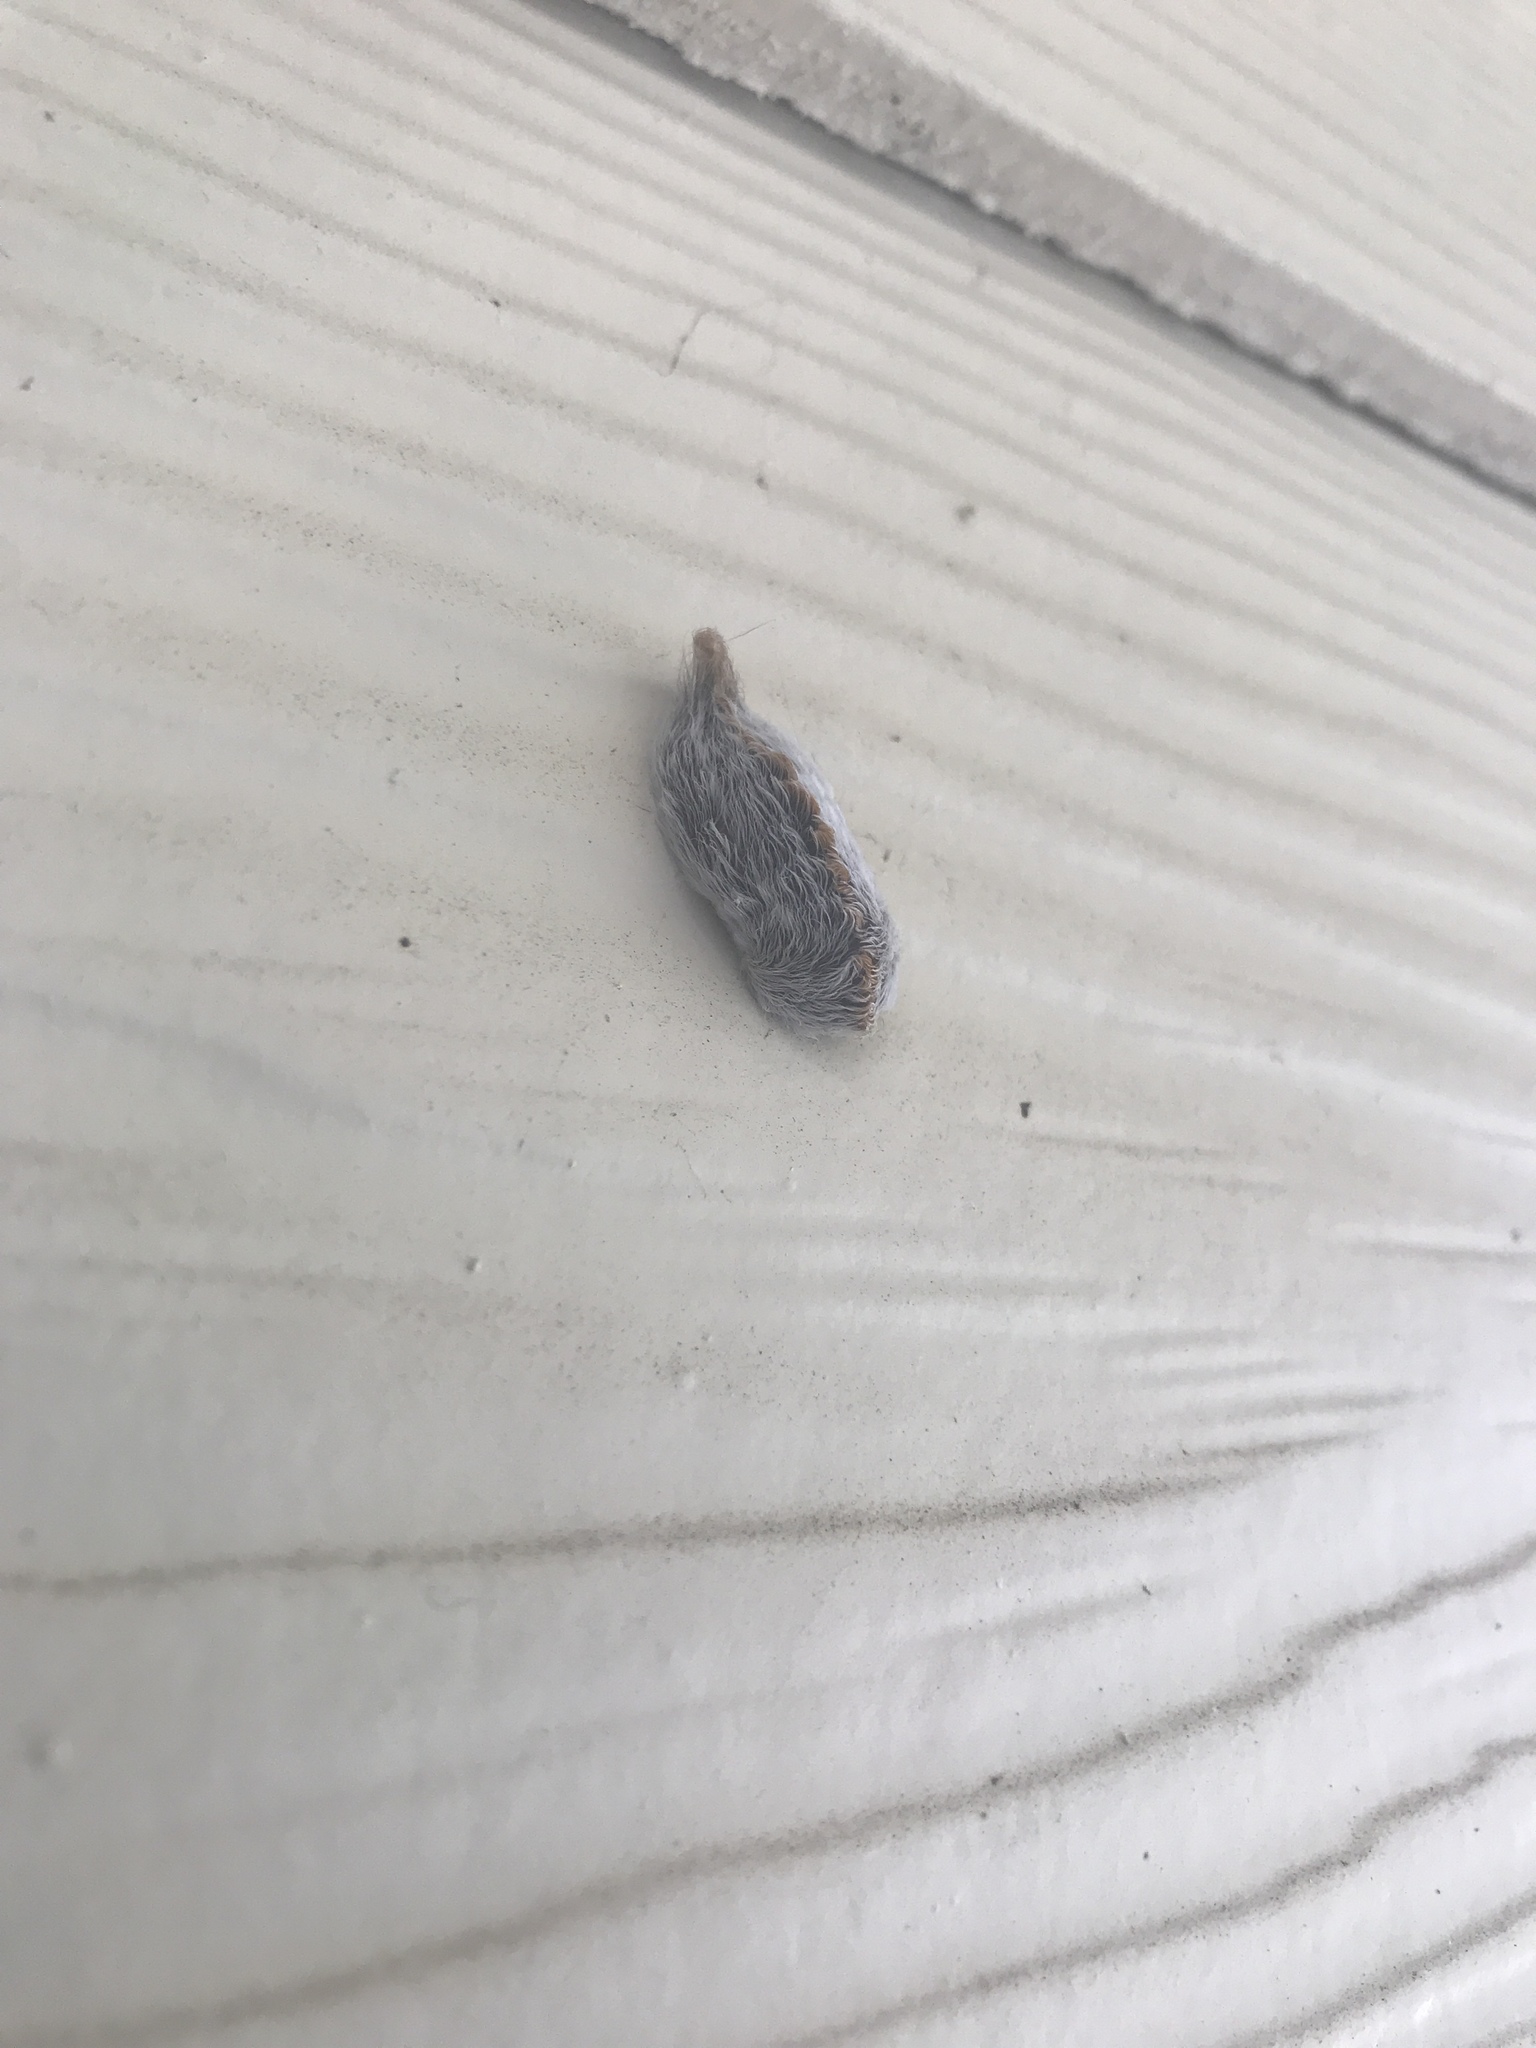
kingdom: Animalia
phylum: Arthropoda
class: Insecta
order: Lepidoptera
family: Megalopygidae
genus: Megalopyge
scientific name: Megalopyge opercularis
